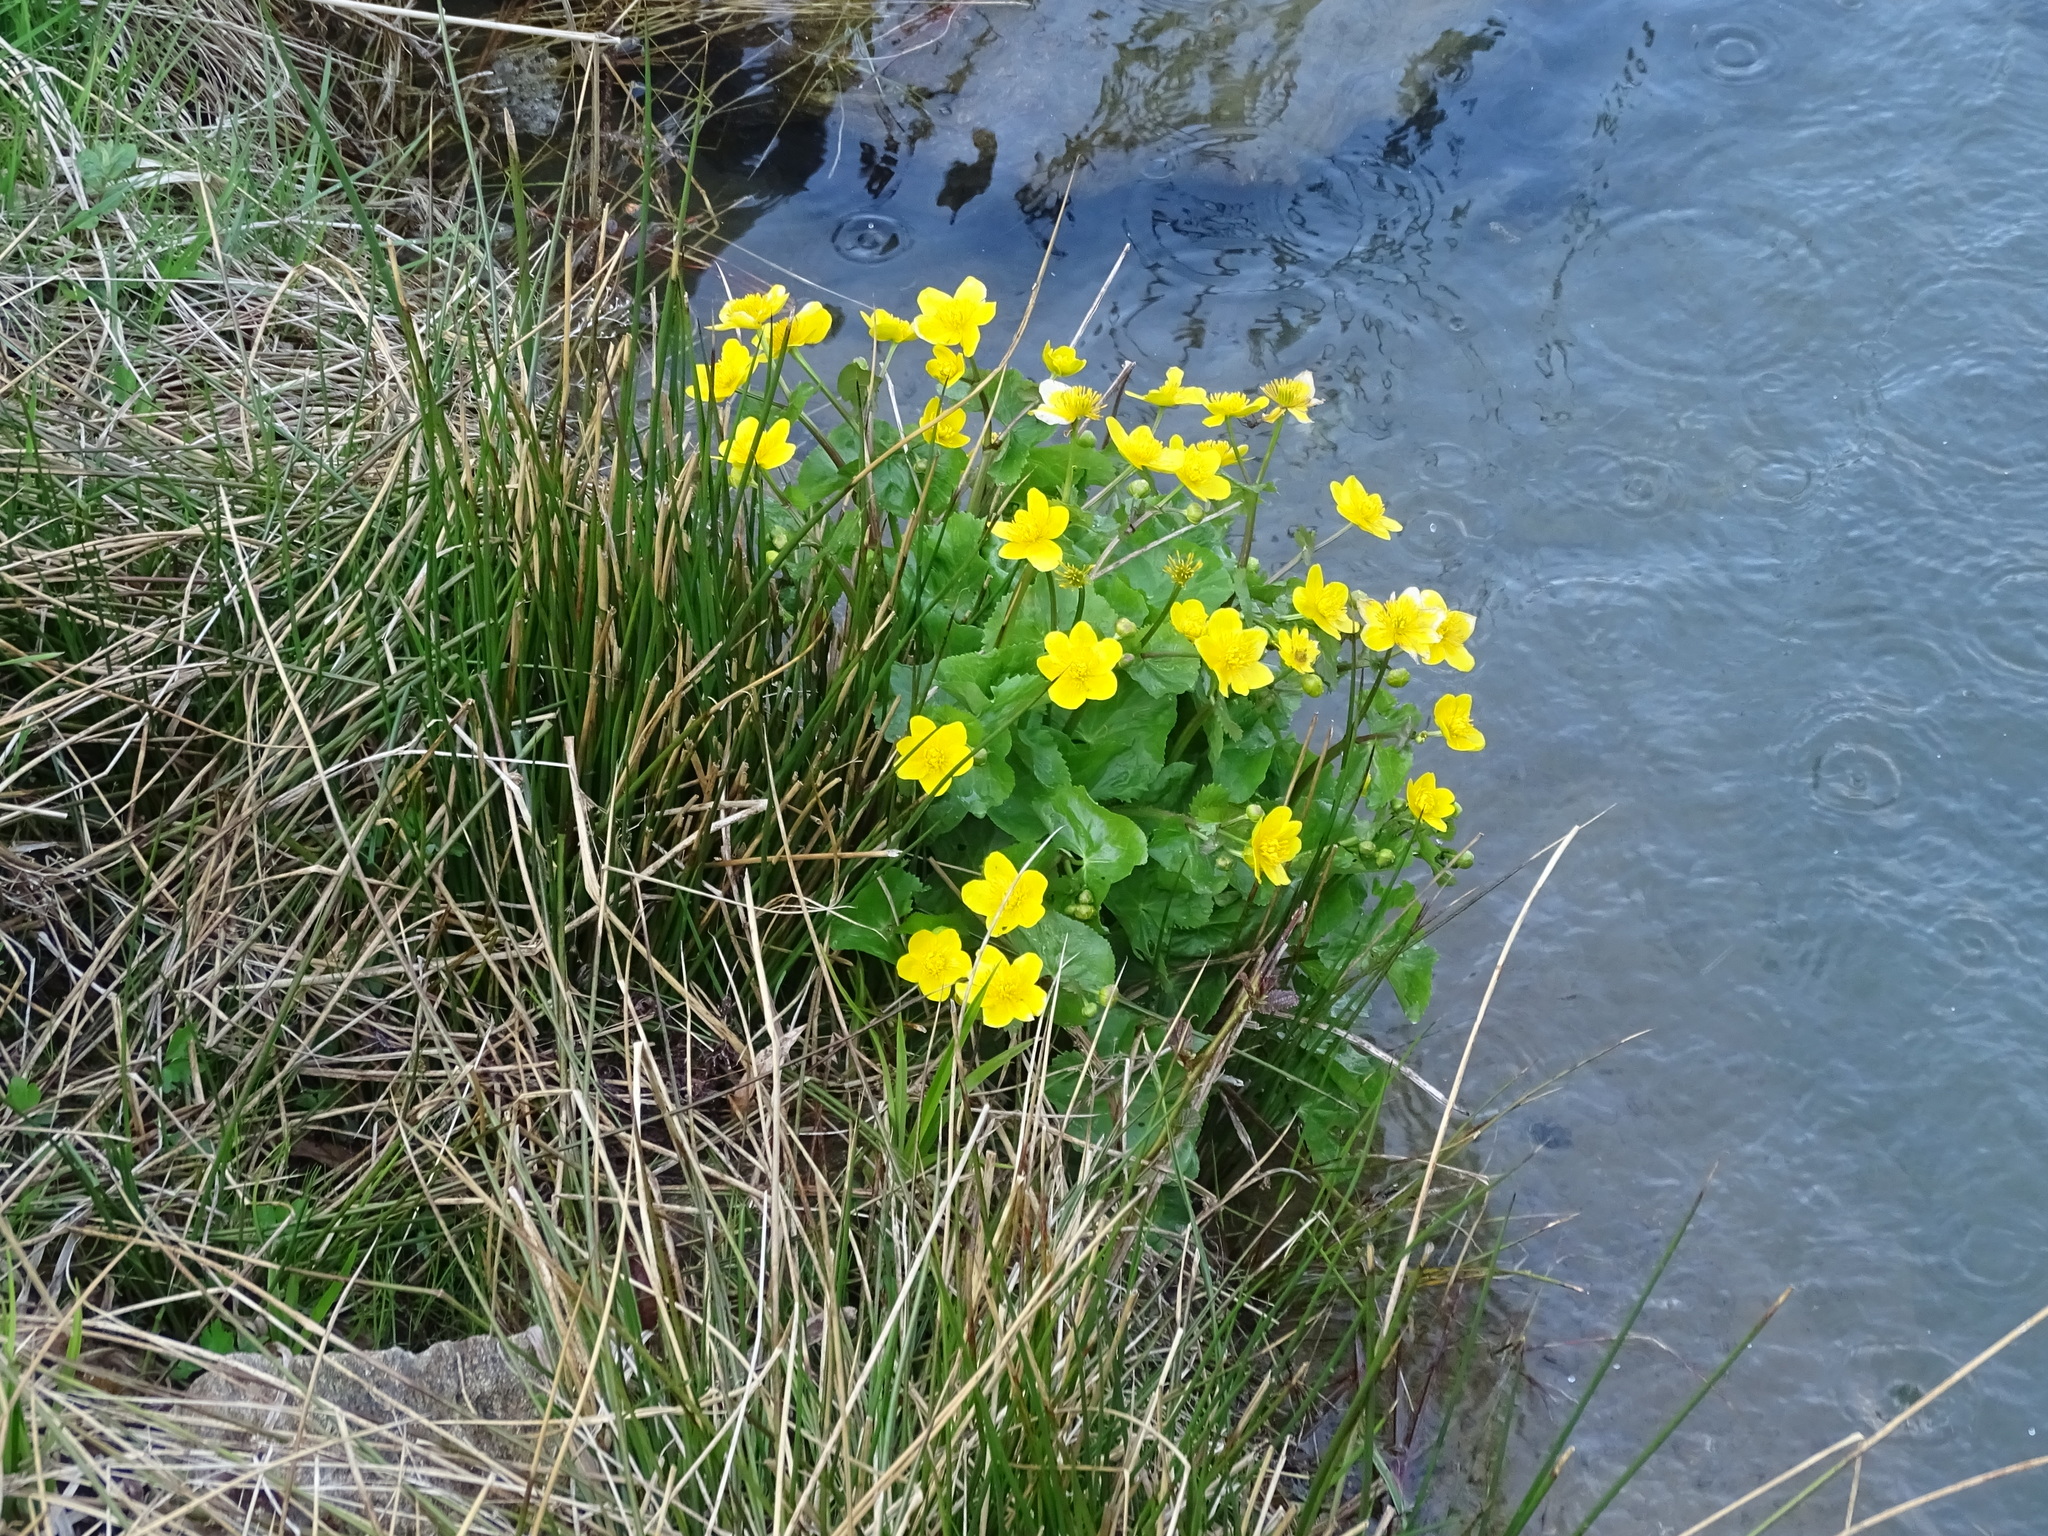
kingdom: Plantae
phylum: Tracheophyta
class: Magnoliopsida
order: Ranunculales
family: Ranunculaceae
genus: Caltha
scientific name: Caltha palustris
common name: Marsh marigold
